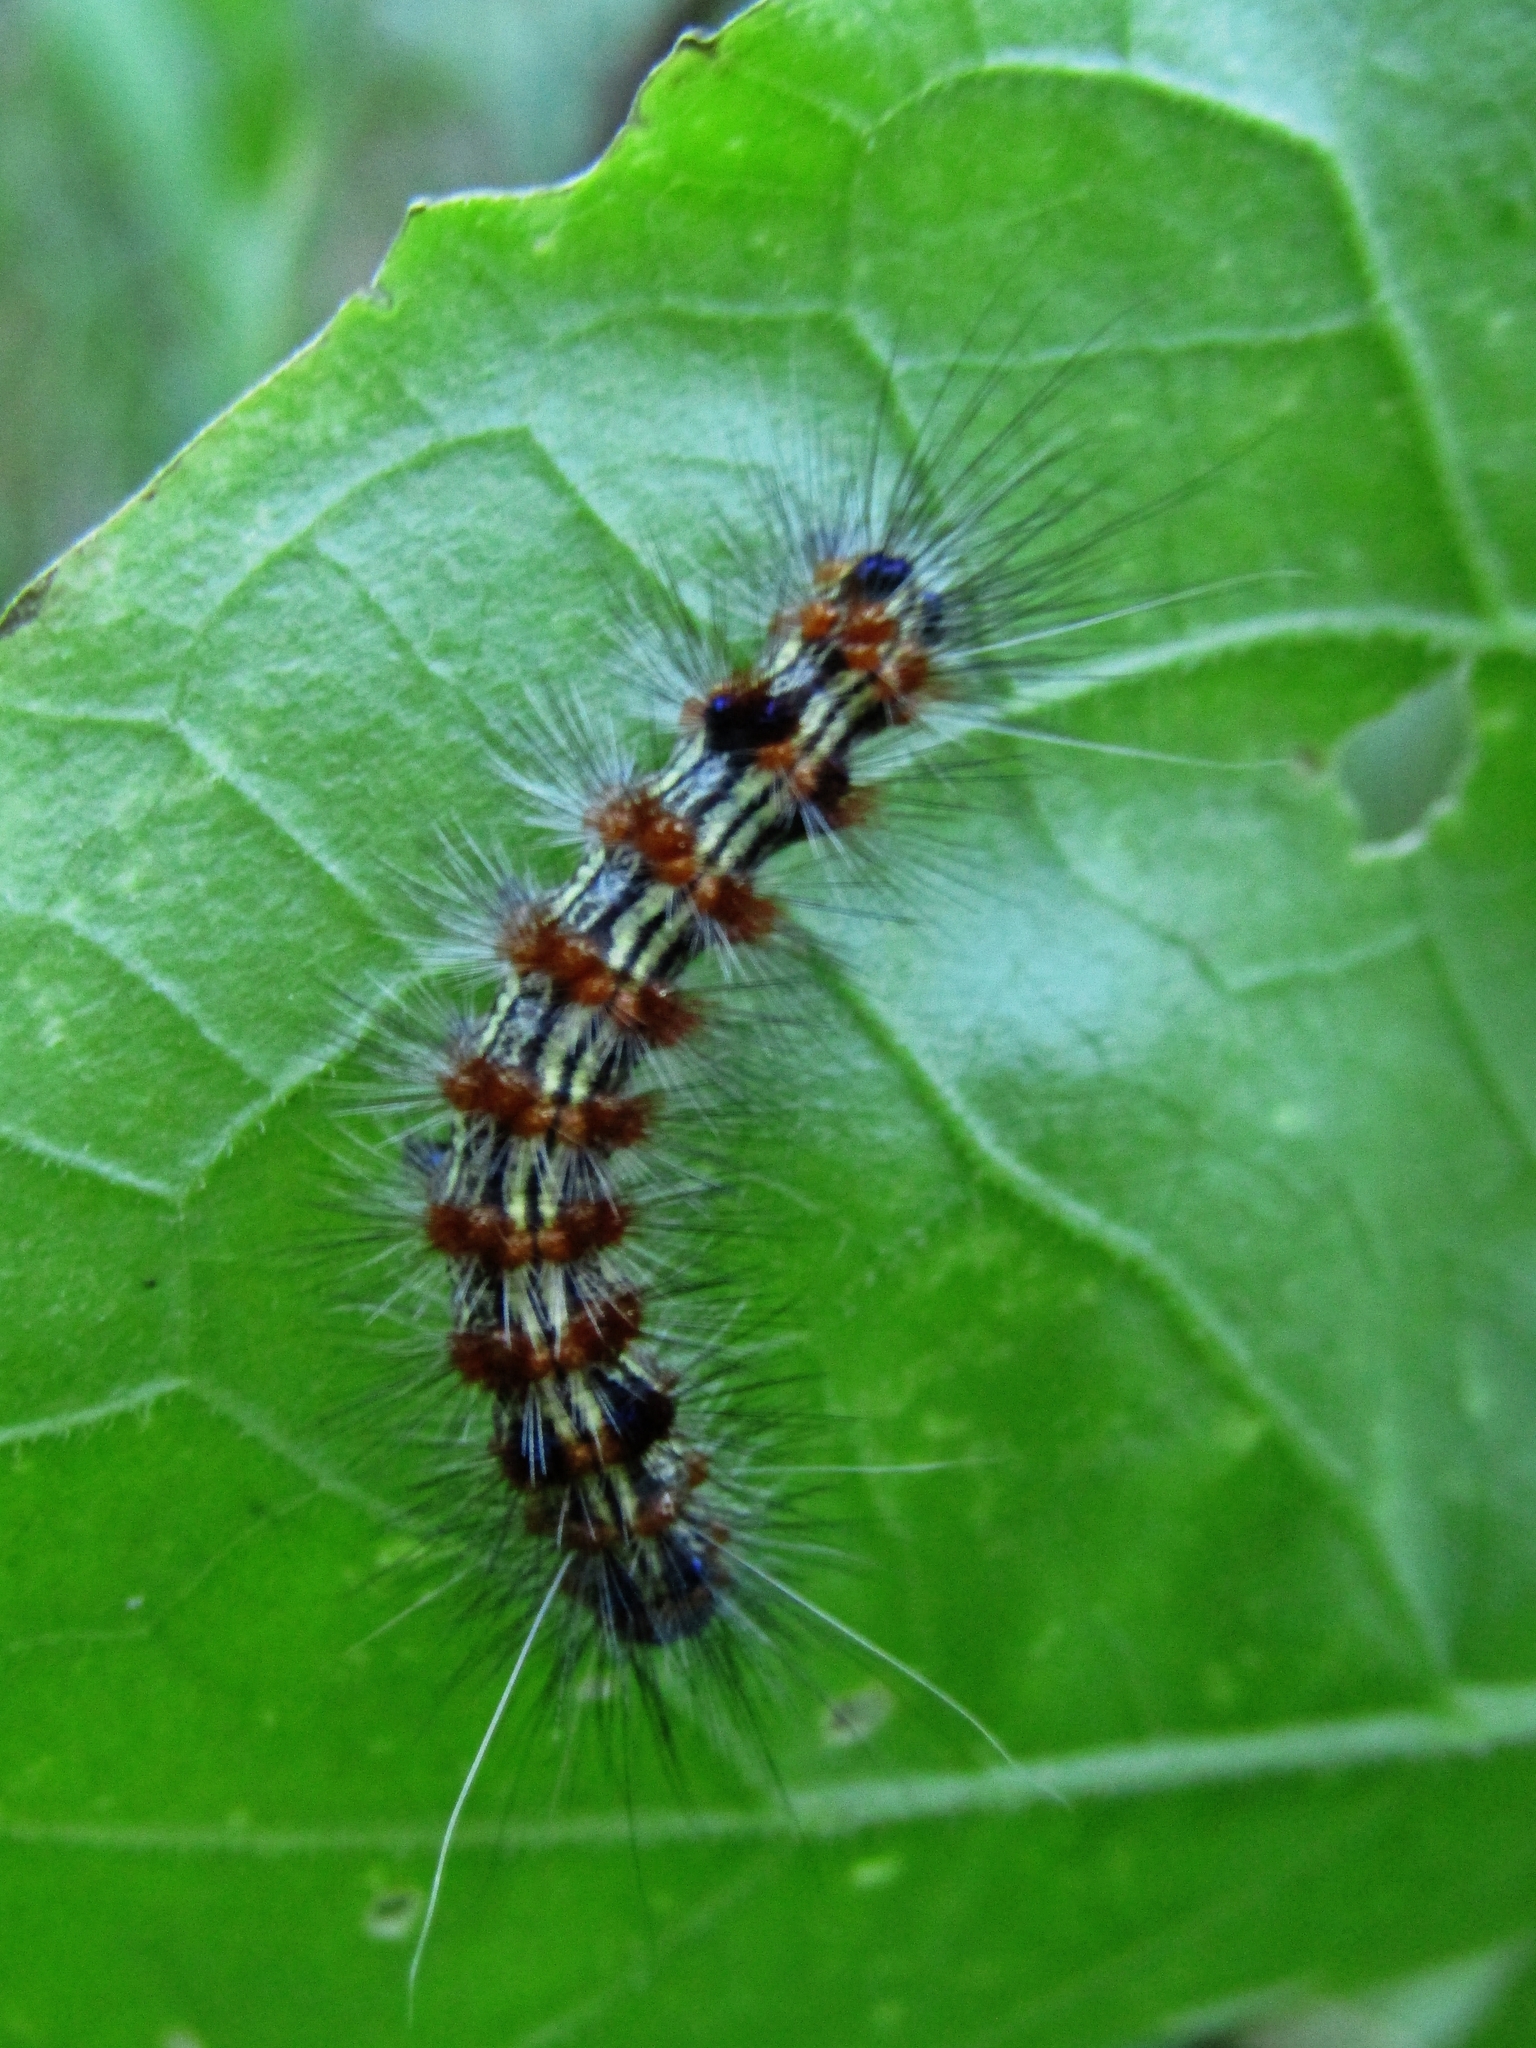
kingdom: Animalia
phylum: Arthropoda
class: Insecta
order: Lepidoptera
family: Erebidae
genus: Dysschema
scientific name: Dysschema sacrifica
